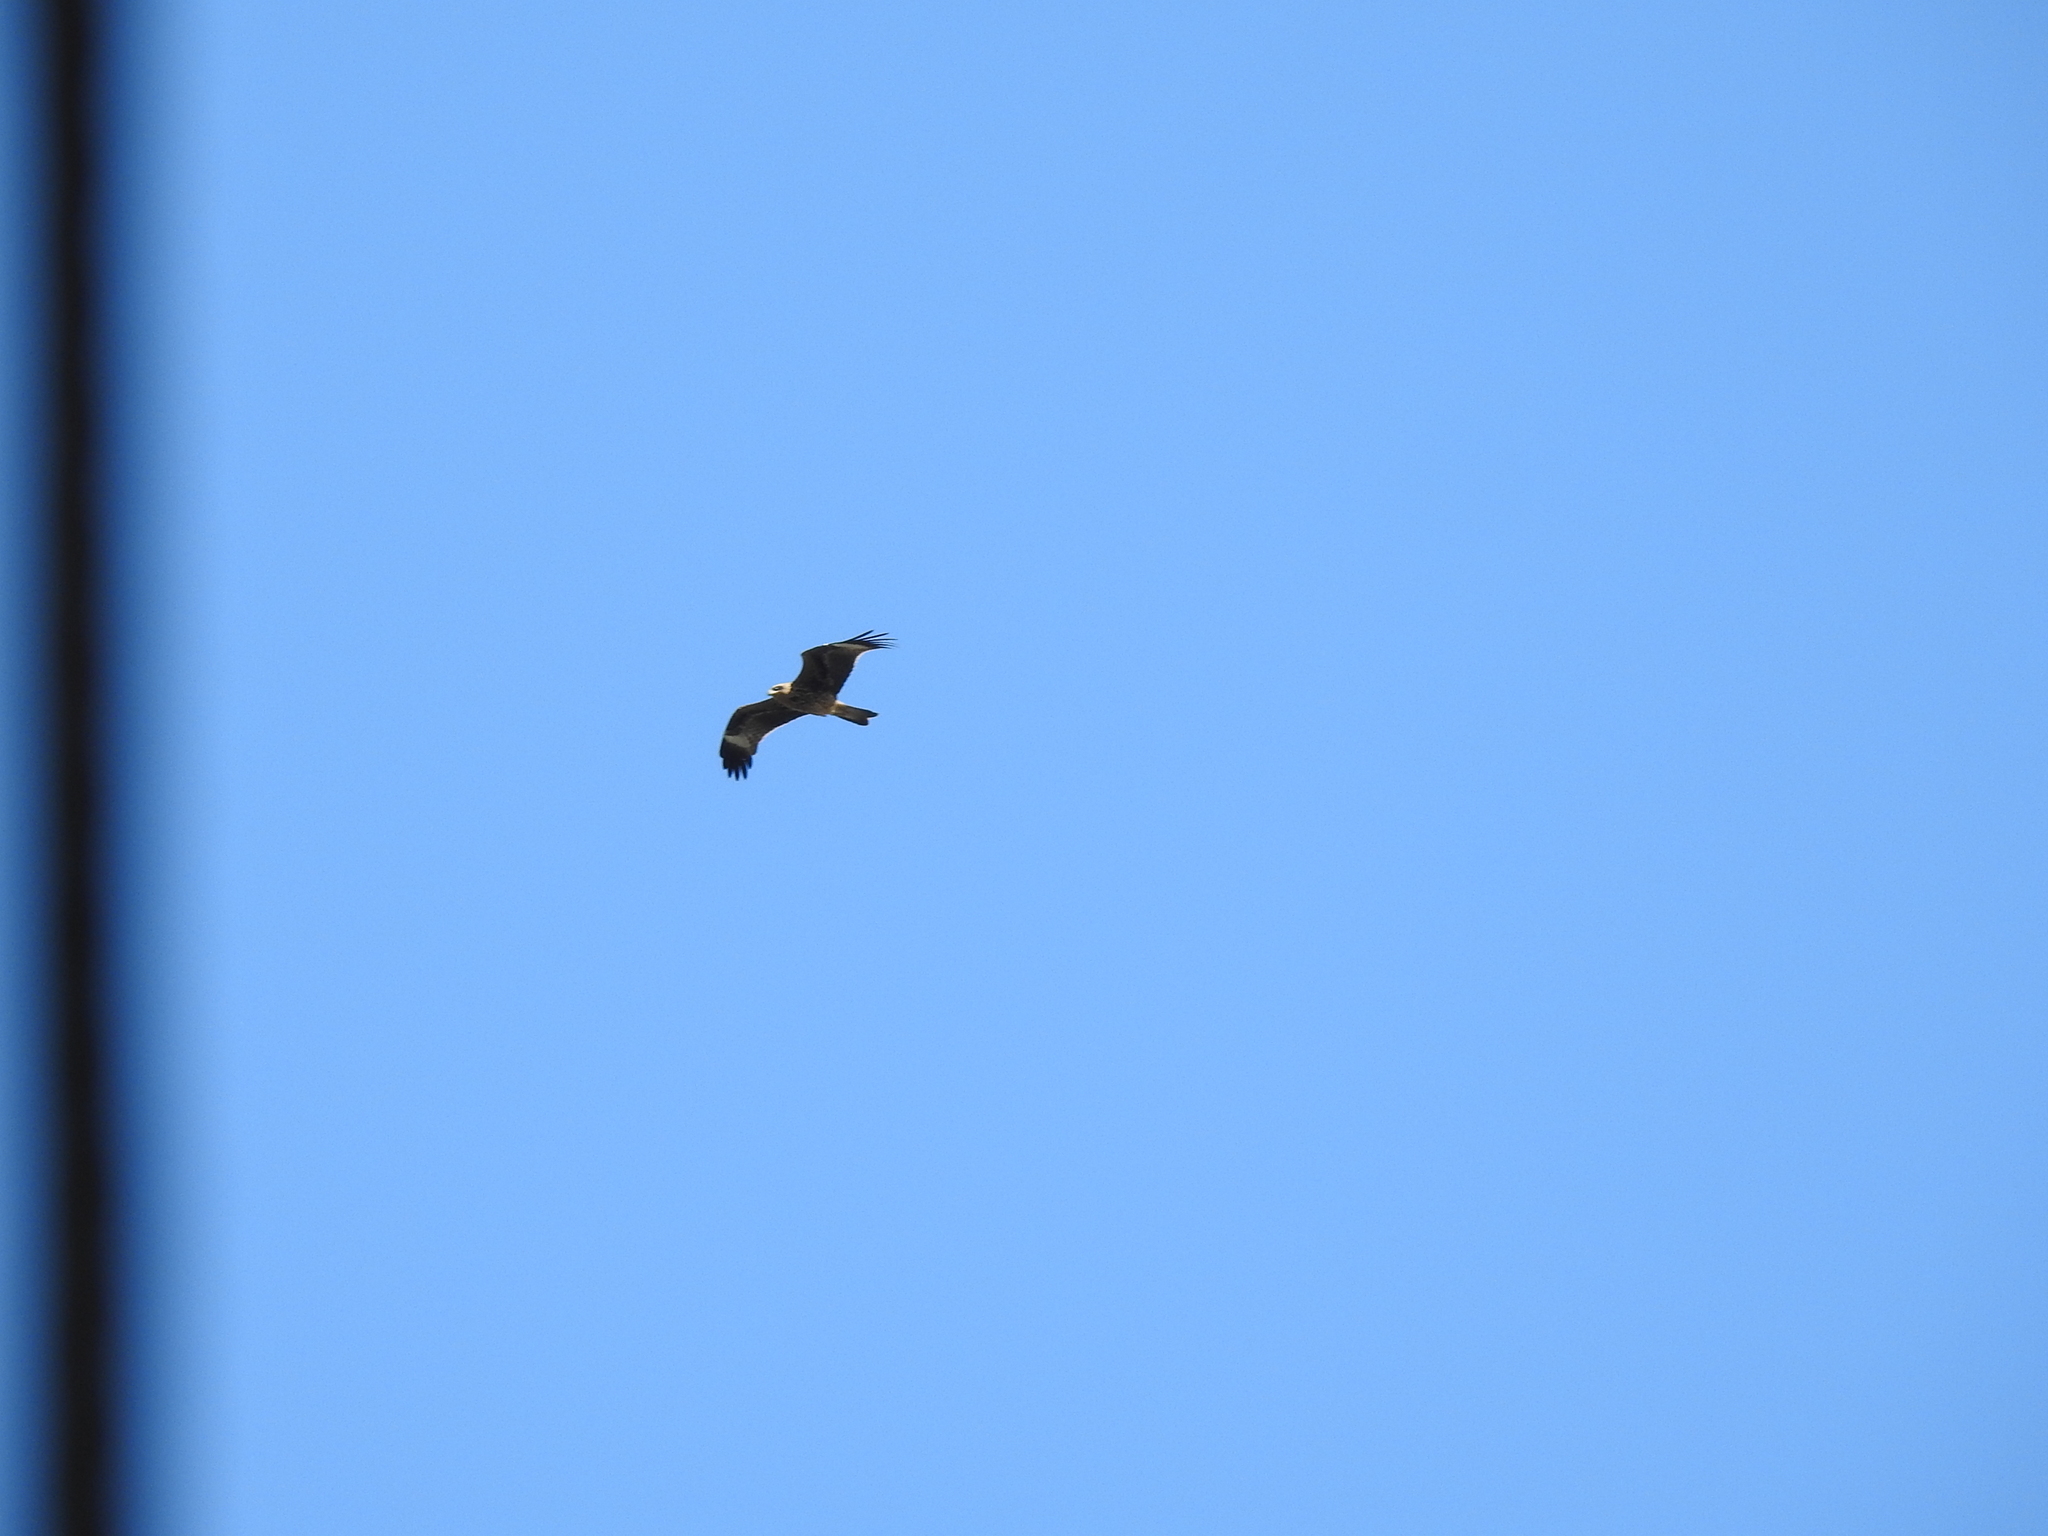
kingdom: Animalia
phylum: Chordata
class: Aves
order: Accipitriformes
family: Accipitridae
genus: Milvus
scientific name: Milvus migrans
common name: Black kite
